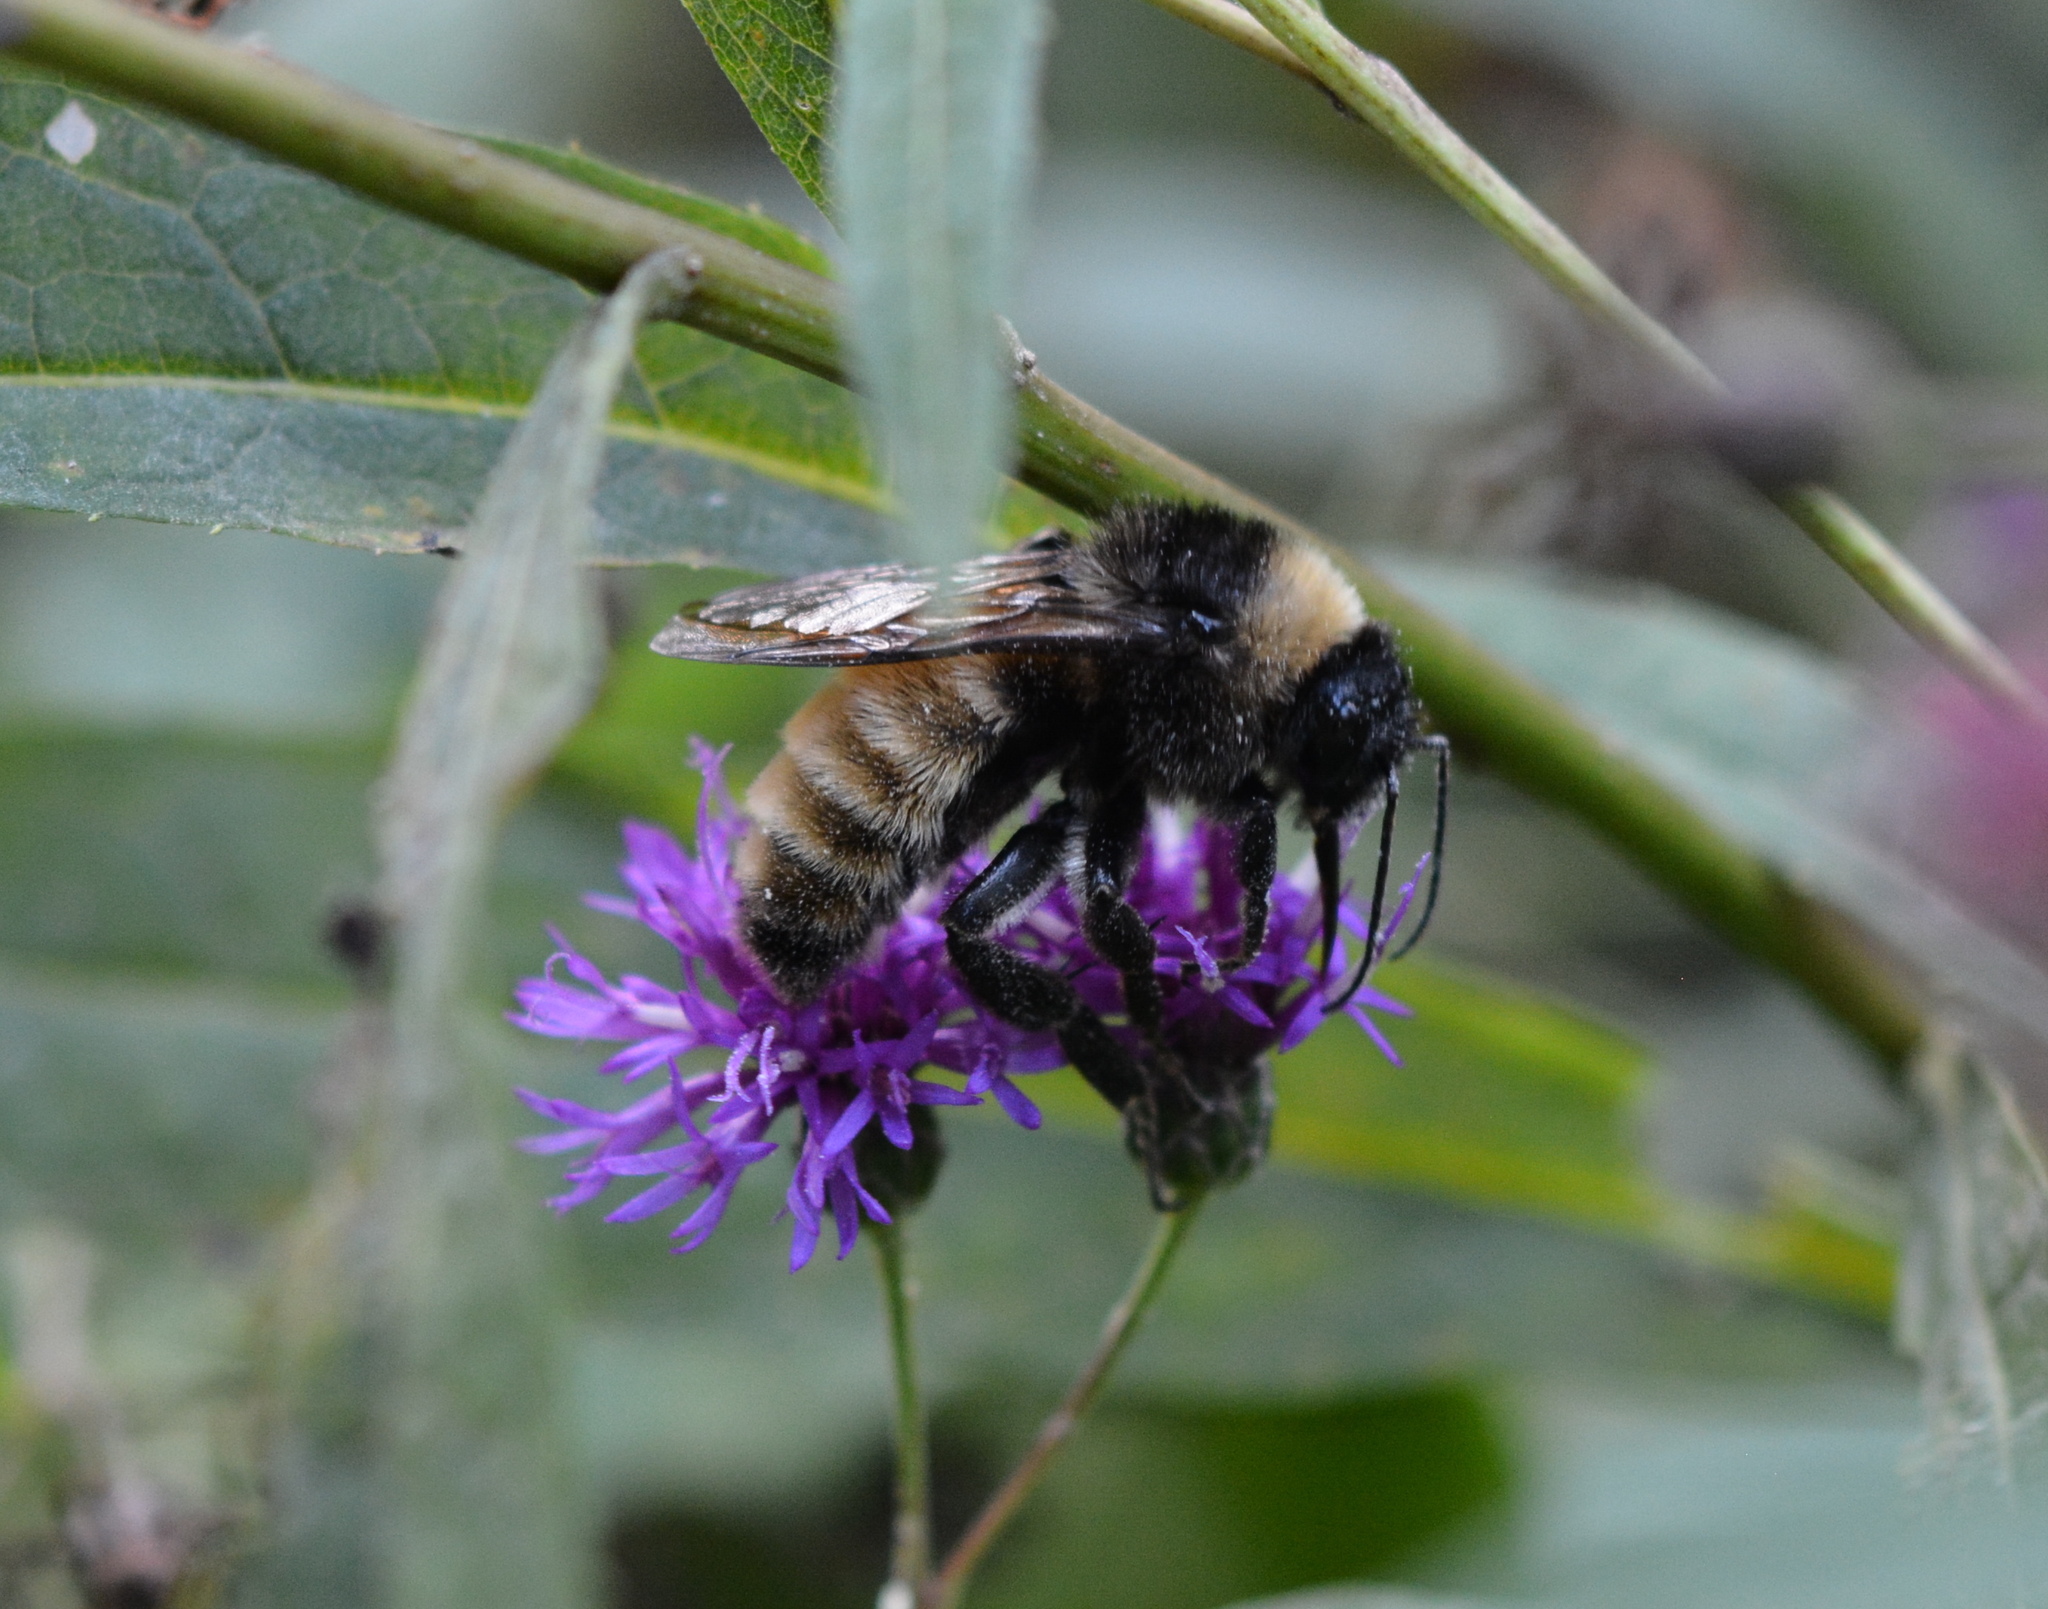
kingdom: Animalia
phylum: Arthropoda
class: Insecta
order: Hymenoptera
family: Apidae
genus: Bombus
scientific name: Bombus pensylvanicus
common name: Bumble bee
